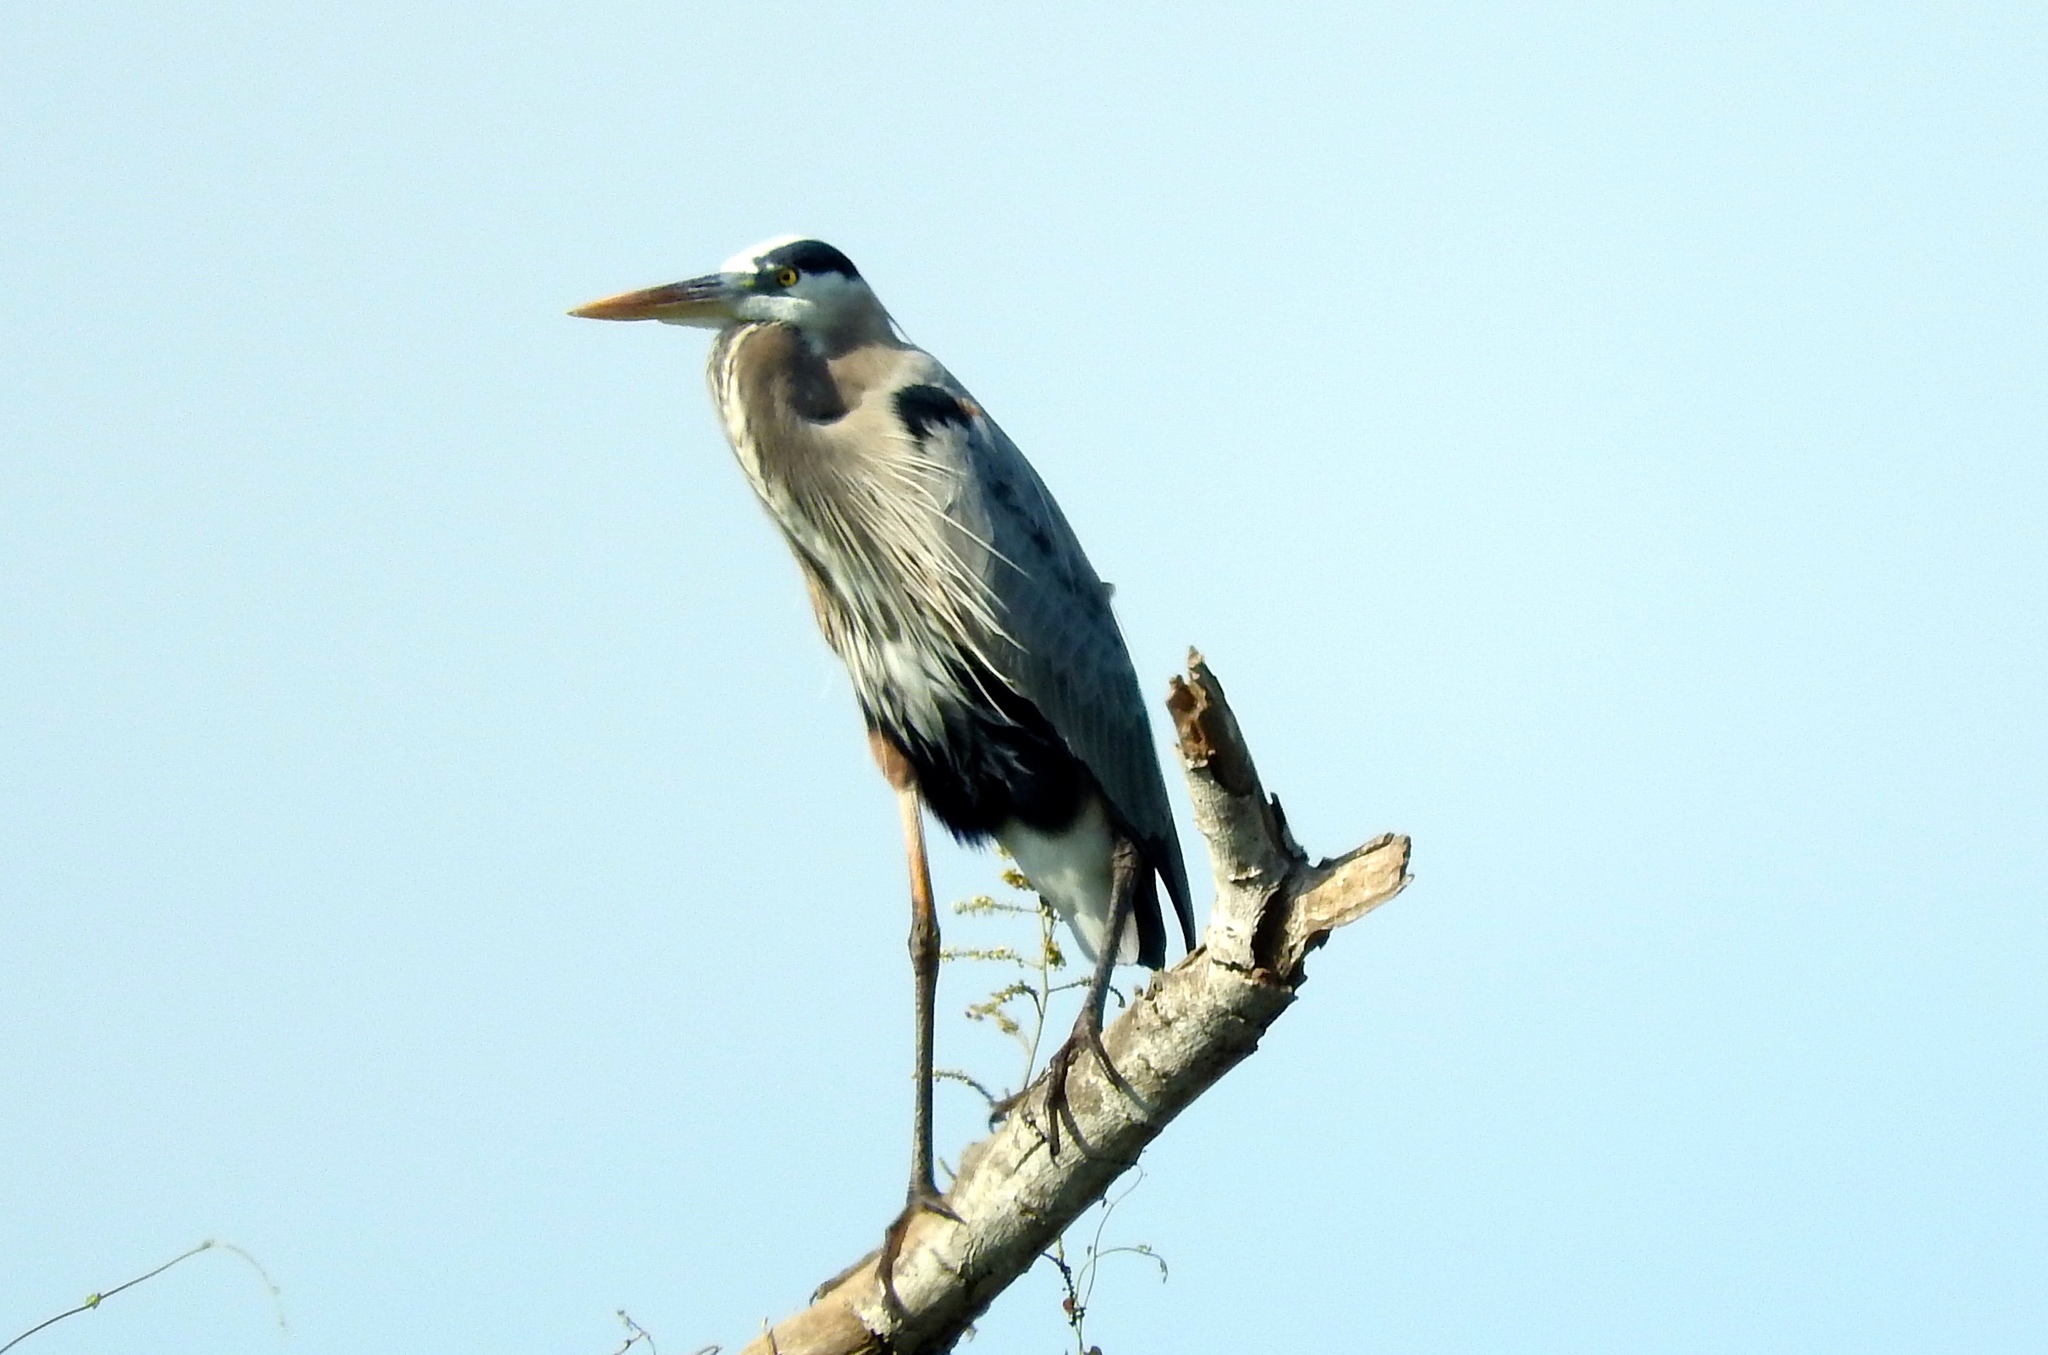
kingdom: Animalia
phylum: Chordata
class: Aves
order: Pelecaniformes
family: Ardeidae
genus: Ardea
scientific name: Ardea herodias
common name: Great blue heron
